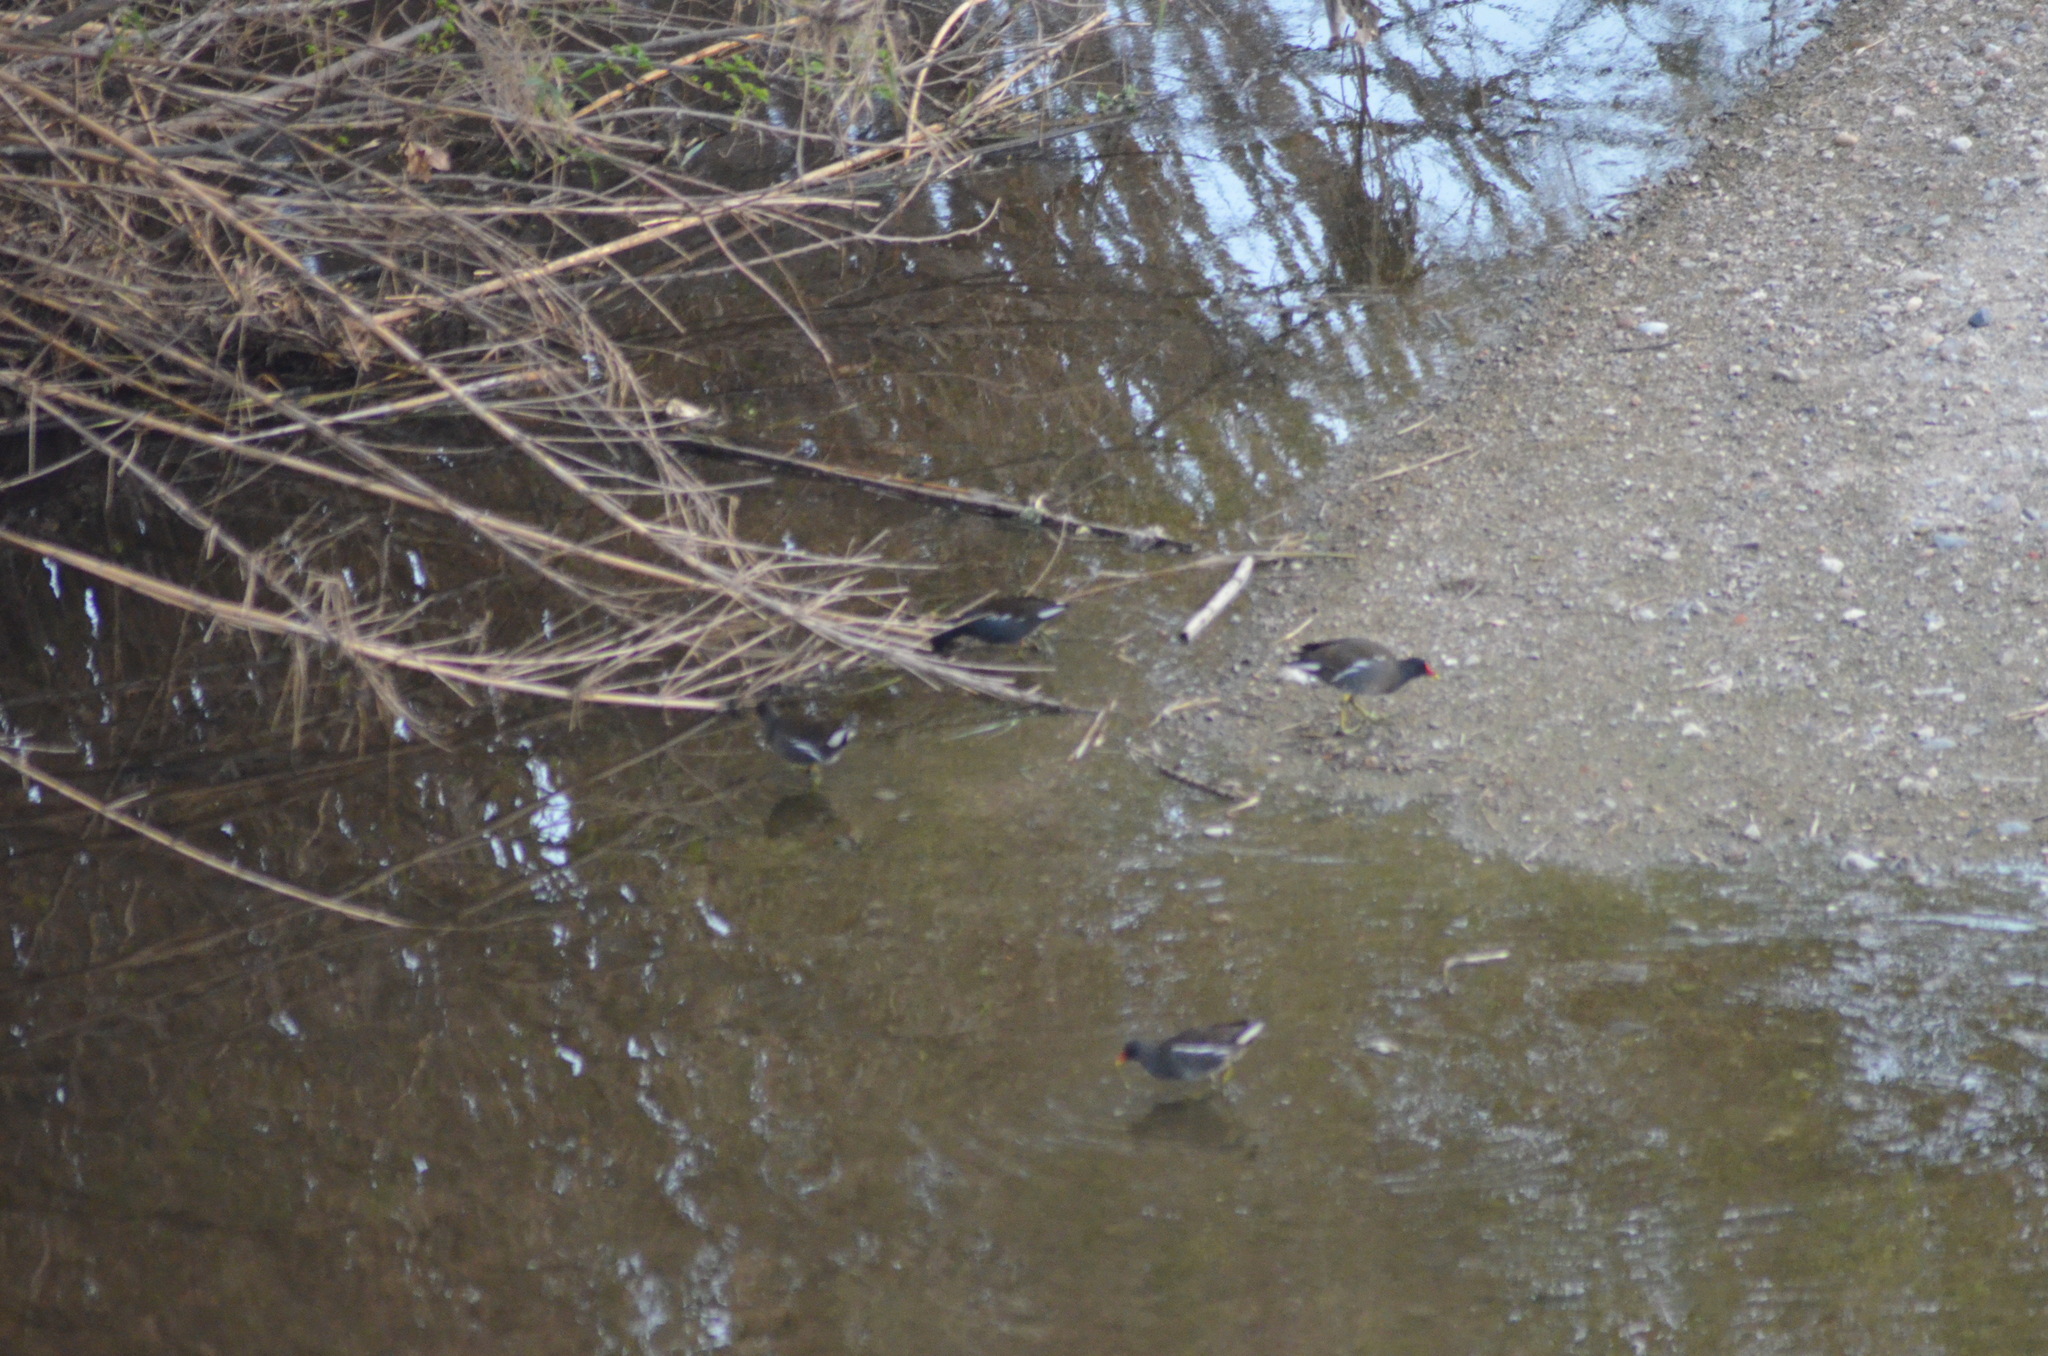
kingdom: Animalia
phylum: Chordata
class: Aves
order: Gruiformes
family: Rallidae
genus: Gallinula
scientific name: Gallinula chloropus
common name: Common moorhen
